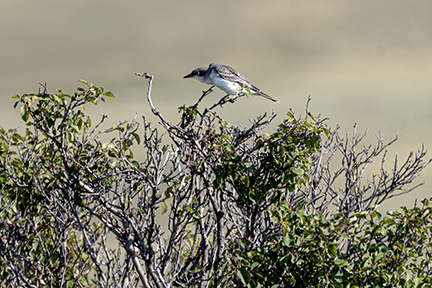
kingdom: Animalia
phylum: Chordata
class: Aves
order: Passeriformes
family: Tyrannidae
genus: Tyrannus
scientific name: Tyrannus tyrannus
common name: Eastern kingbird
